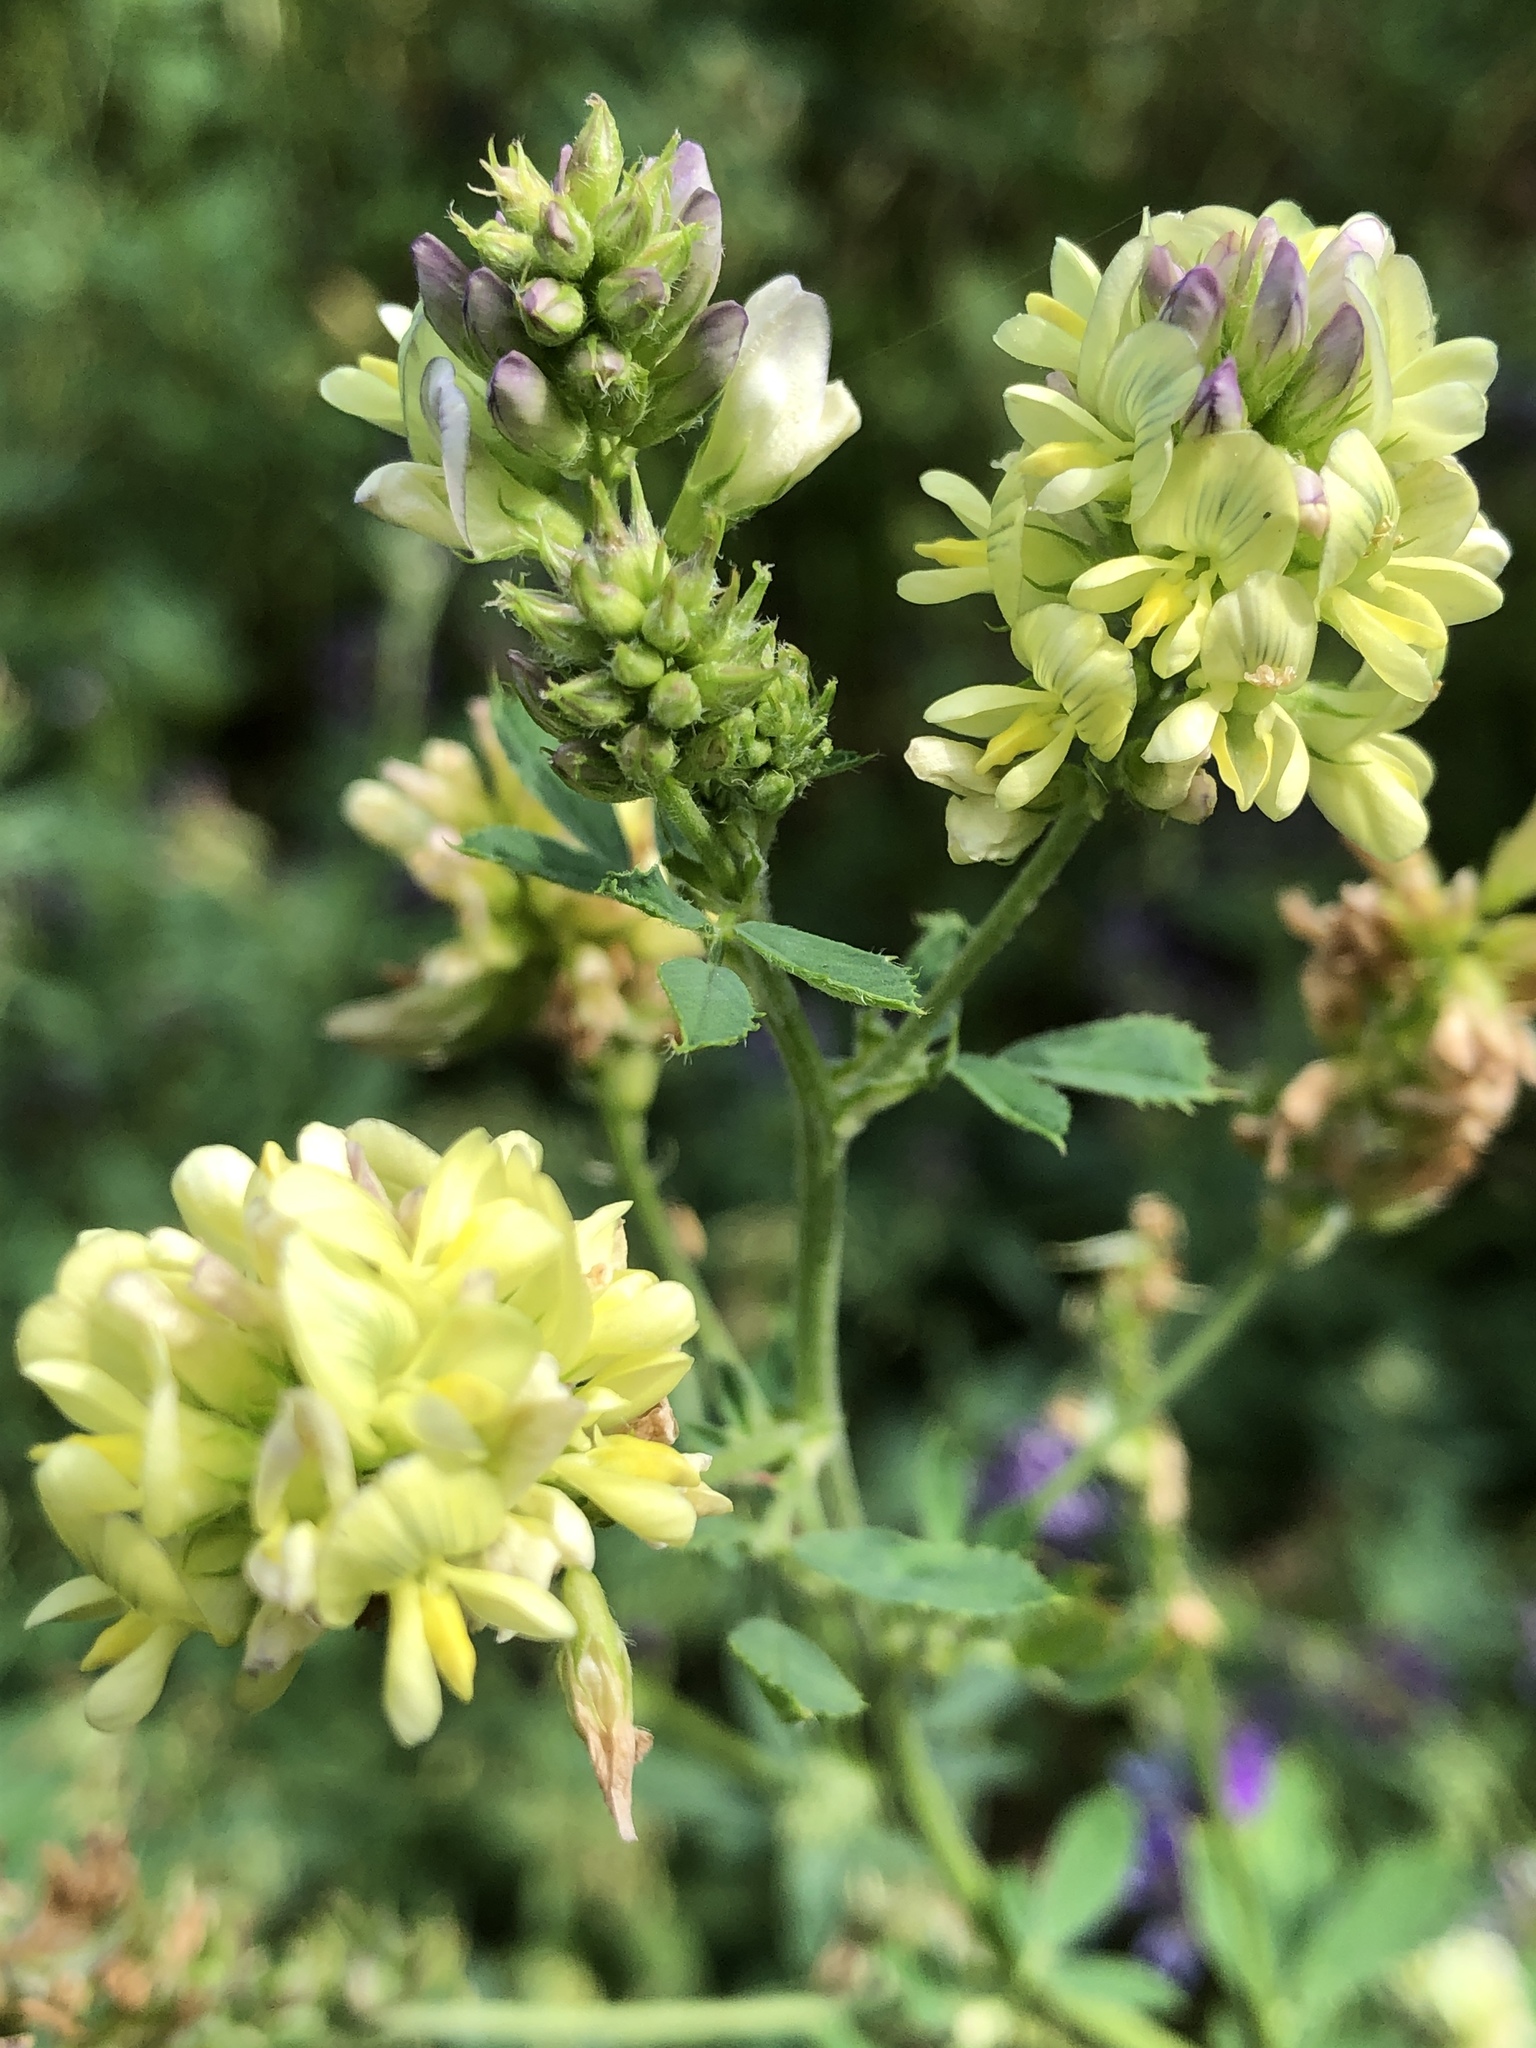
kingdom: Plantae
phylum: Tracheophyta
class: Magnoliopsida
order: Fabales
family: Fabaceae
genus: Medicago
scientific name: Medicago falcata
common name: Sickle medick
